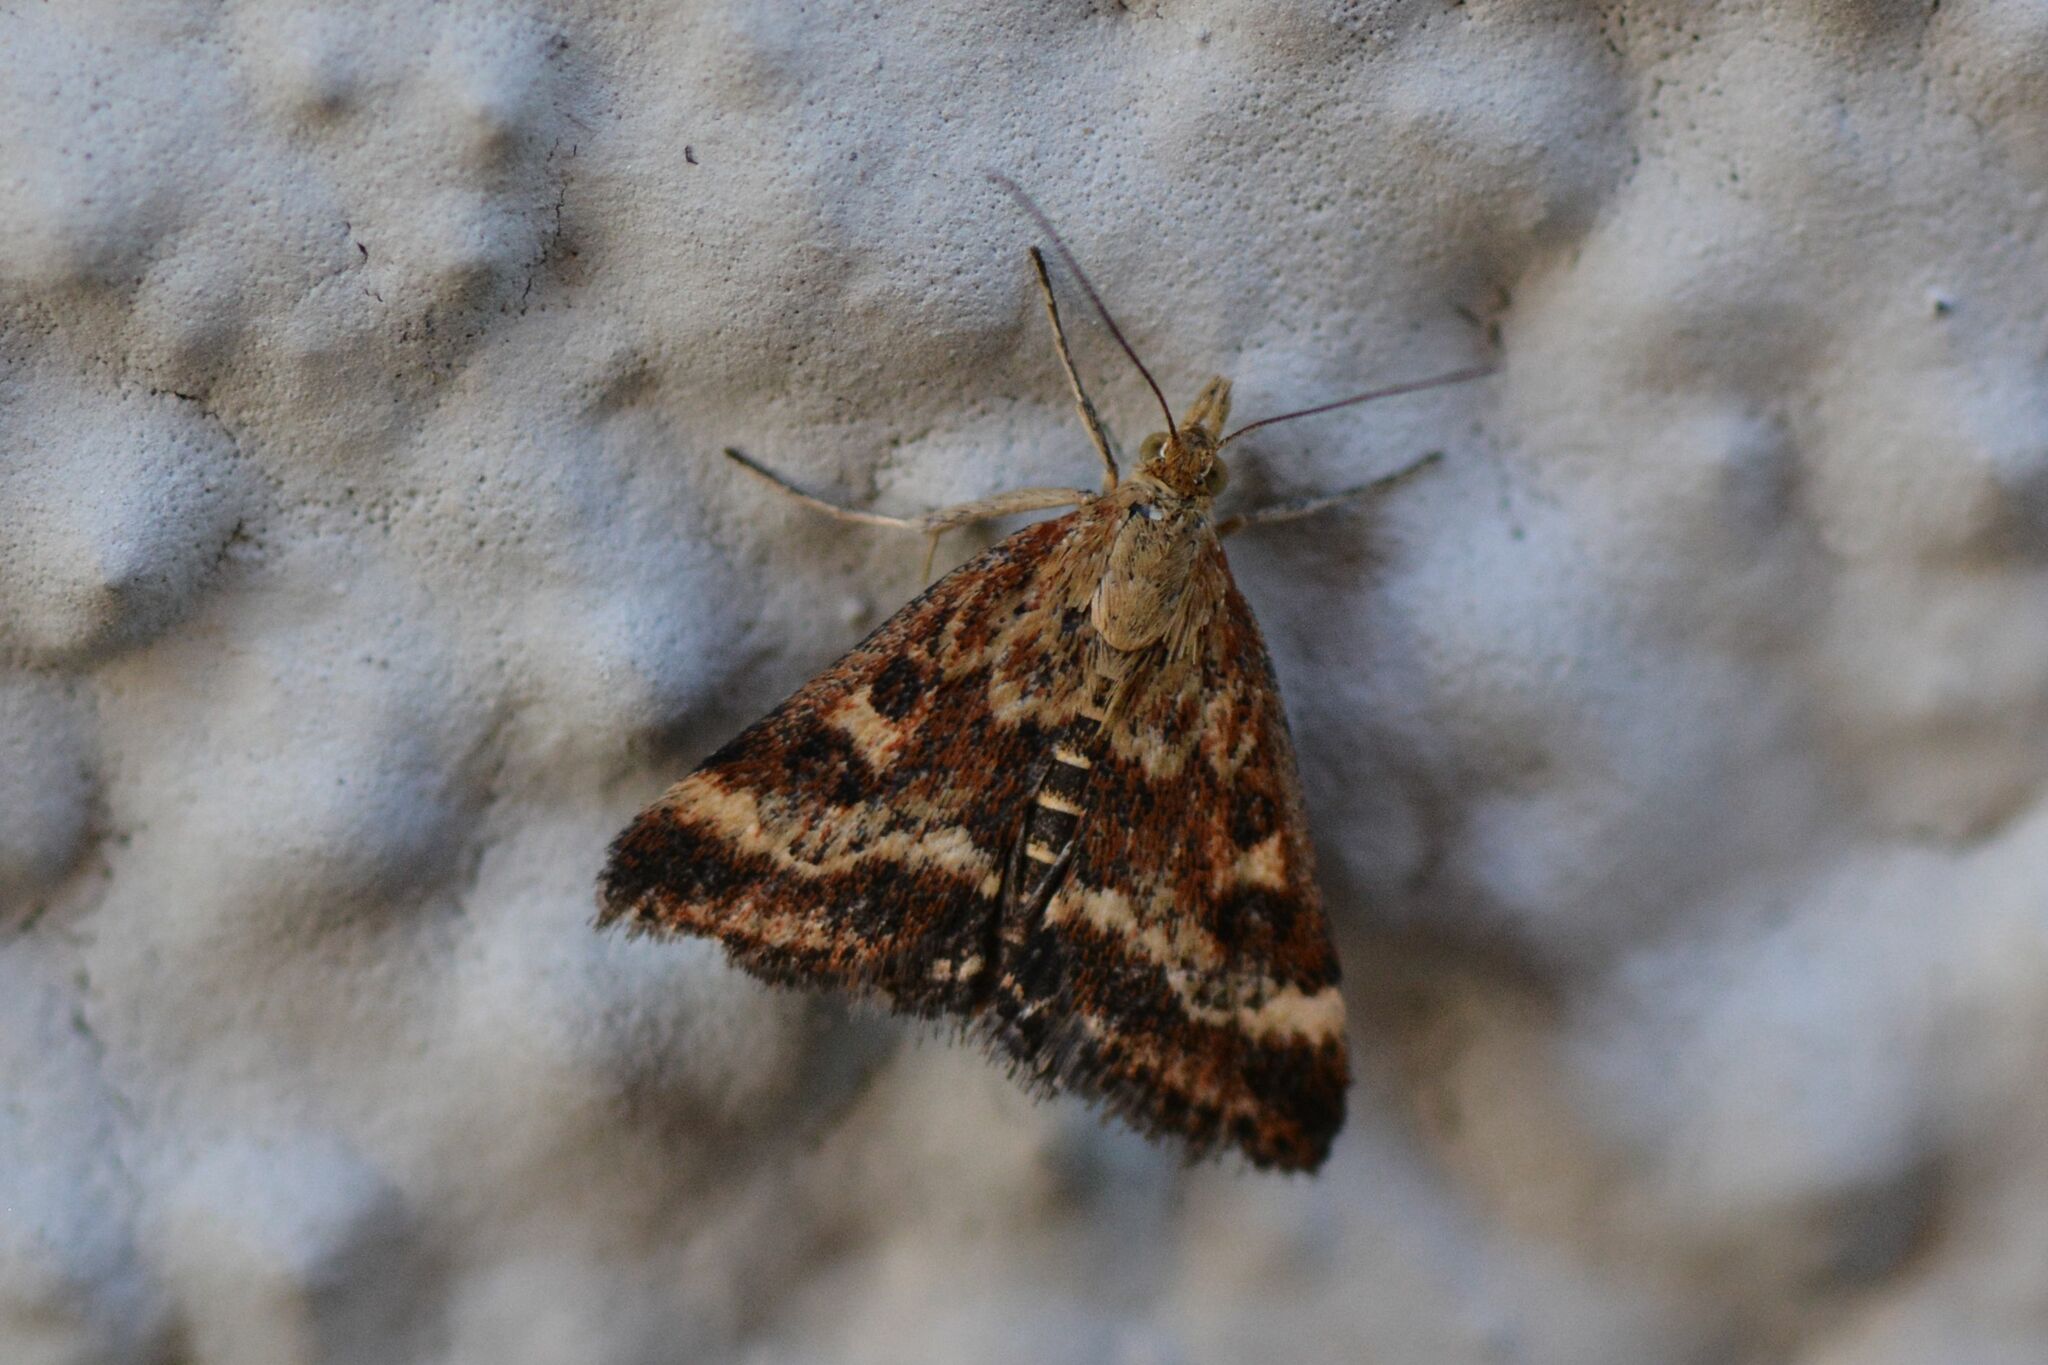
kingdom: Animalia
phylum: Arthropoda
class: Insecta
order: Lepidoptera
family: Crambidae
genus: Pyrausta
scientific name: Pyrausta despicata
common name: Straw-barred pearl
